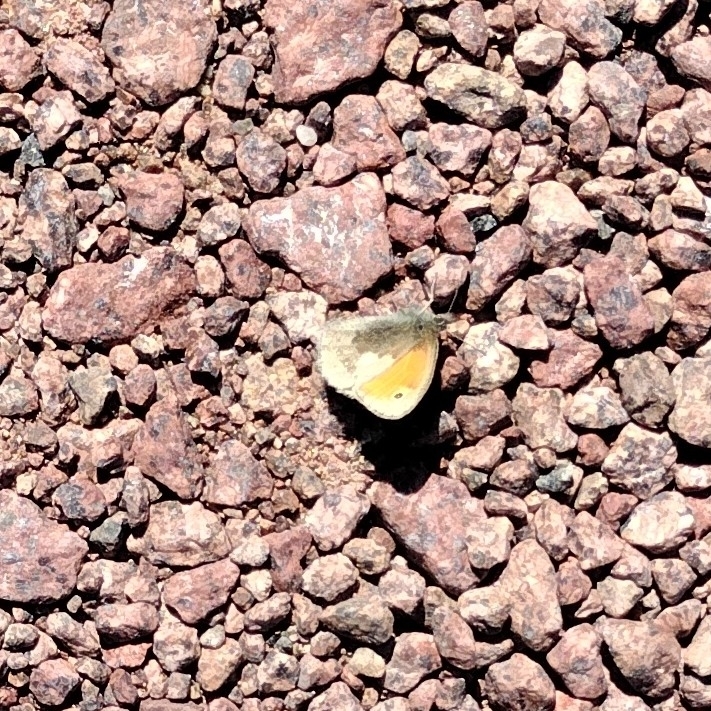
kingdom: Animalia
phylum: Arthropoda
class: Insecta
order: Lepidoptera
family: Nymphalidae
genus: Coenonympha
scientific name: Coenonympha pamphilus
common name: Small heath
